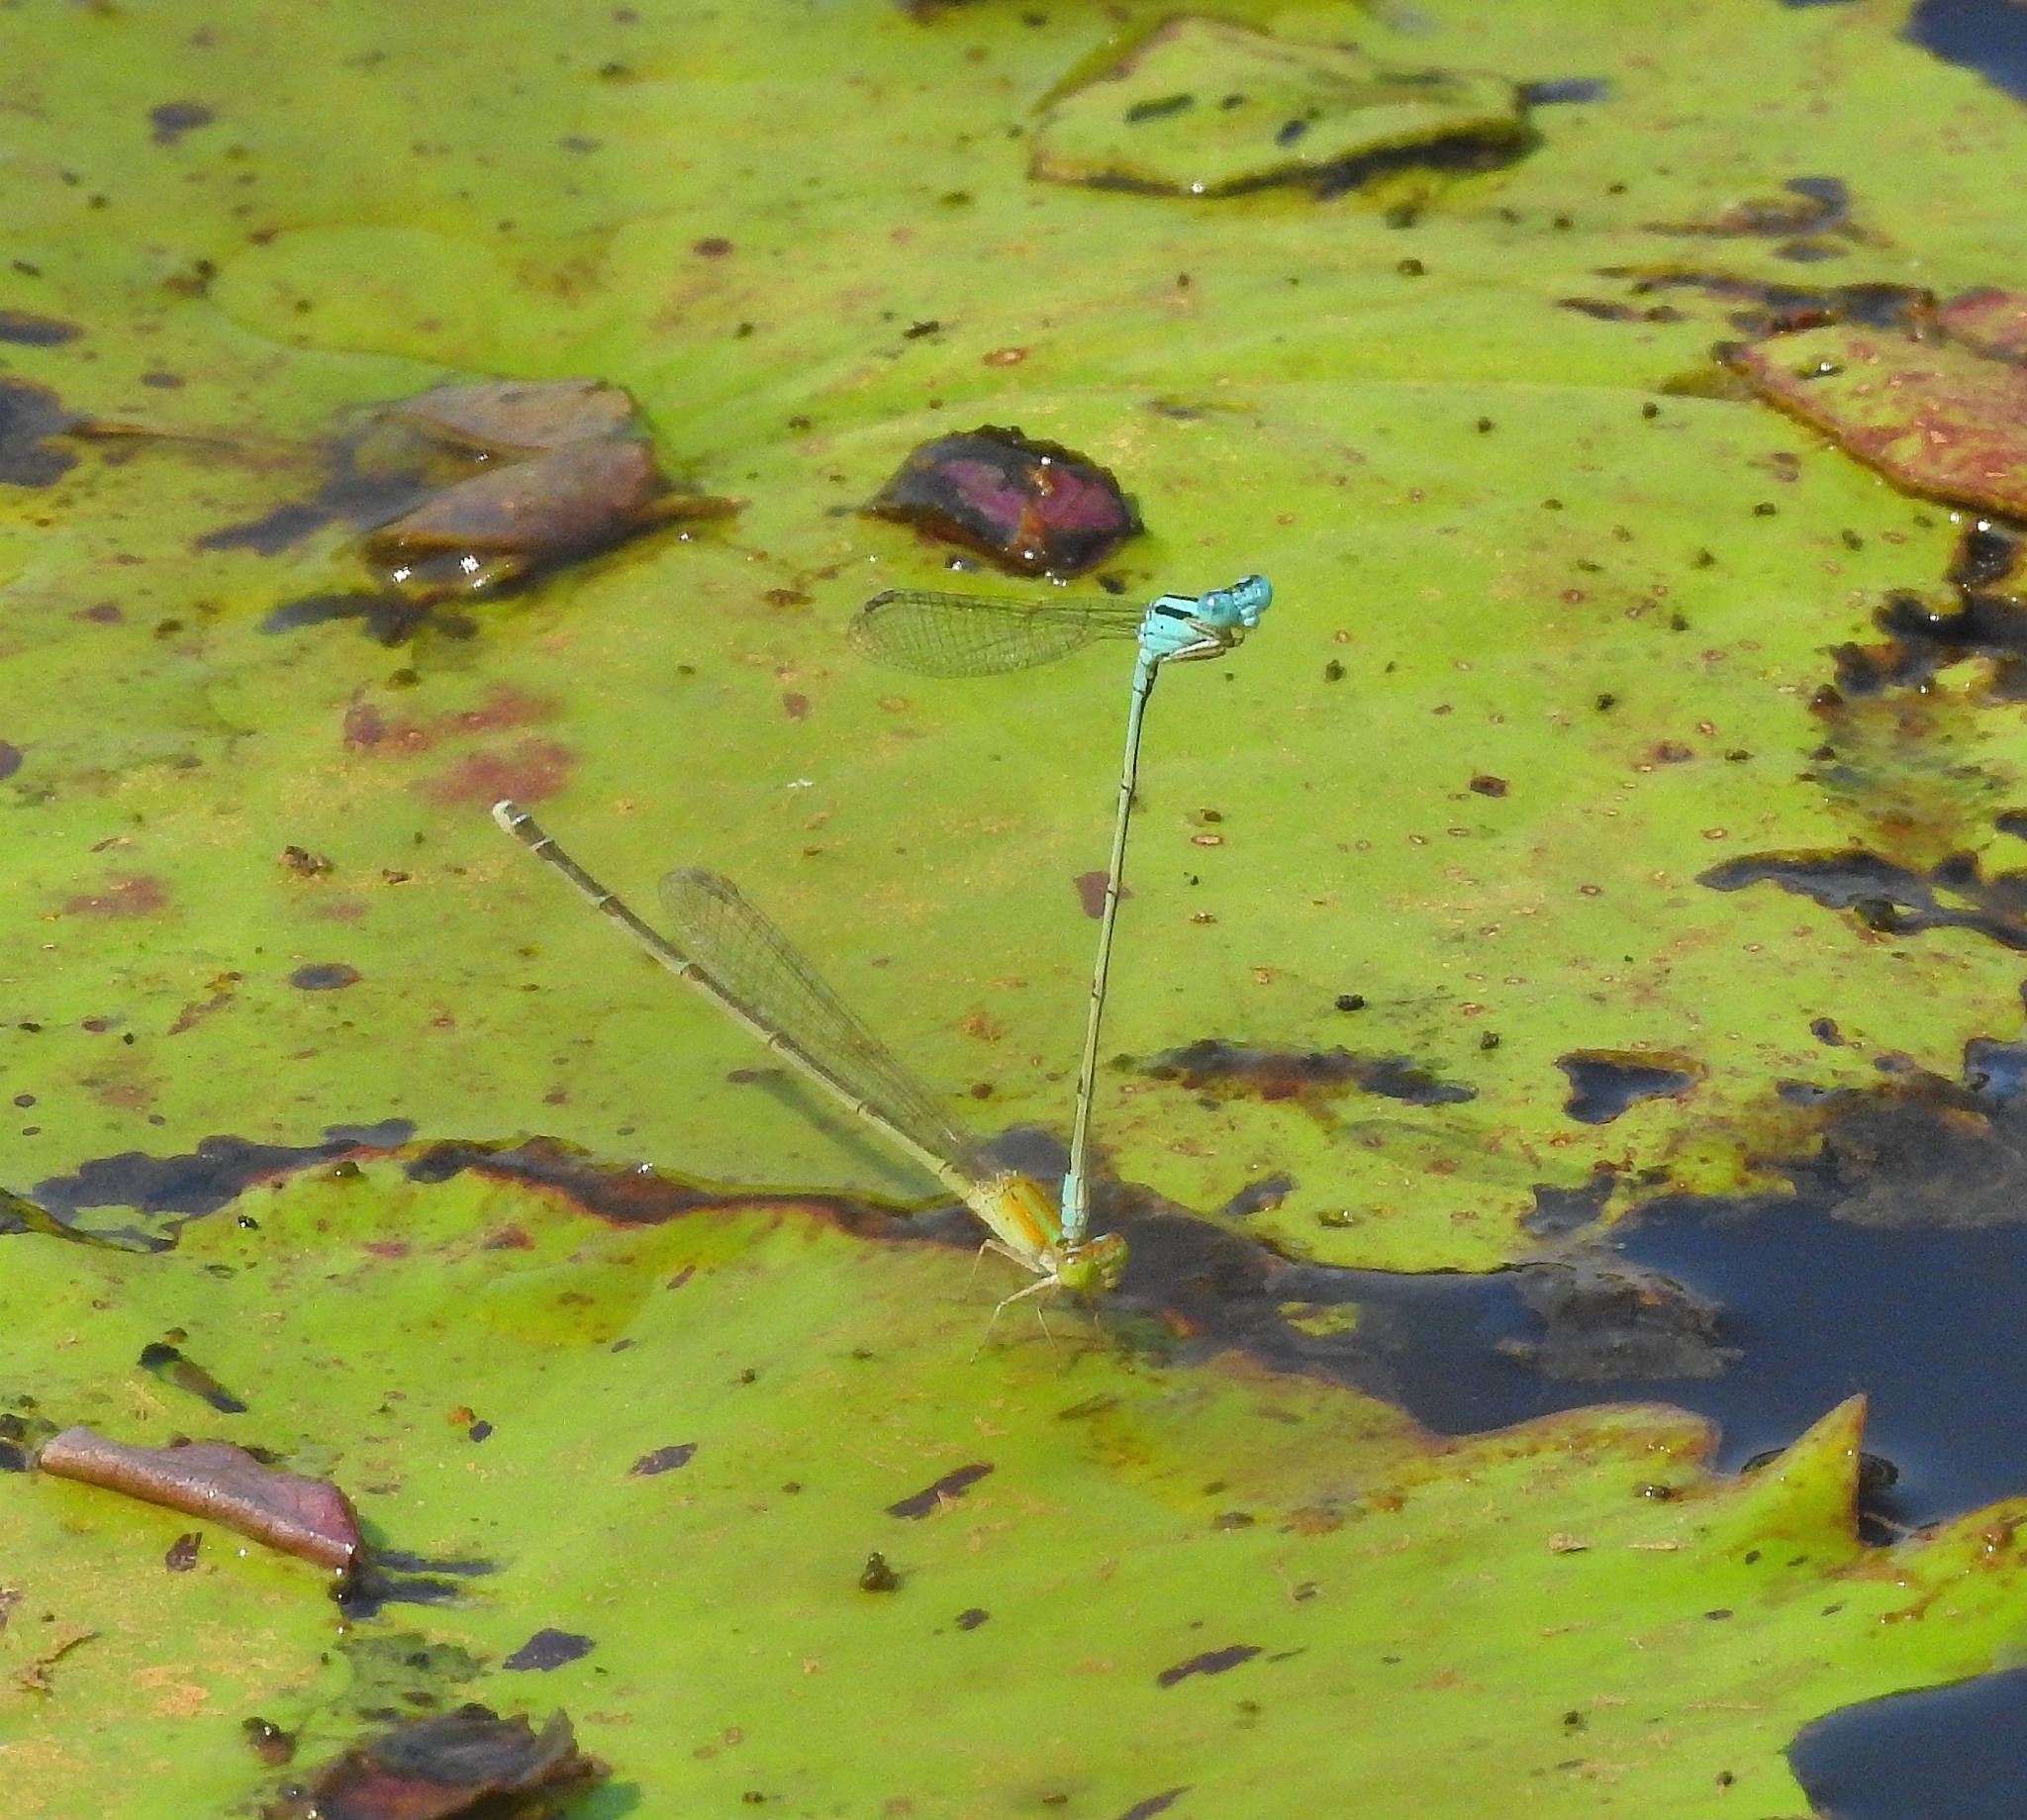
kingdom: Animalia
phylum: Arthropoda
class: Insecta
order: Odonata
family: Coenagrionidae
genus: Pseudagrion
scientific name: Pseudagrion microcephalum
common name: Blue riverdamsel
